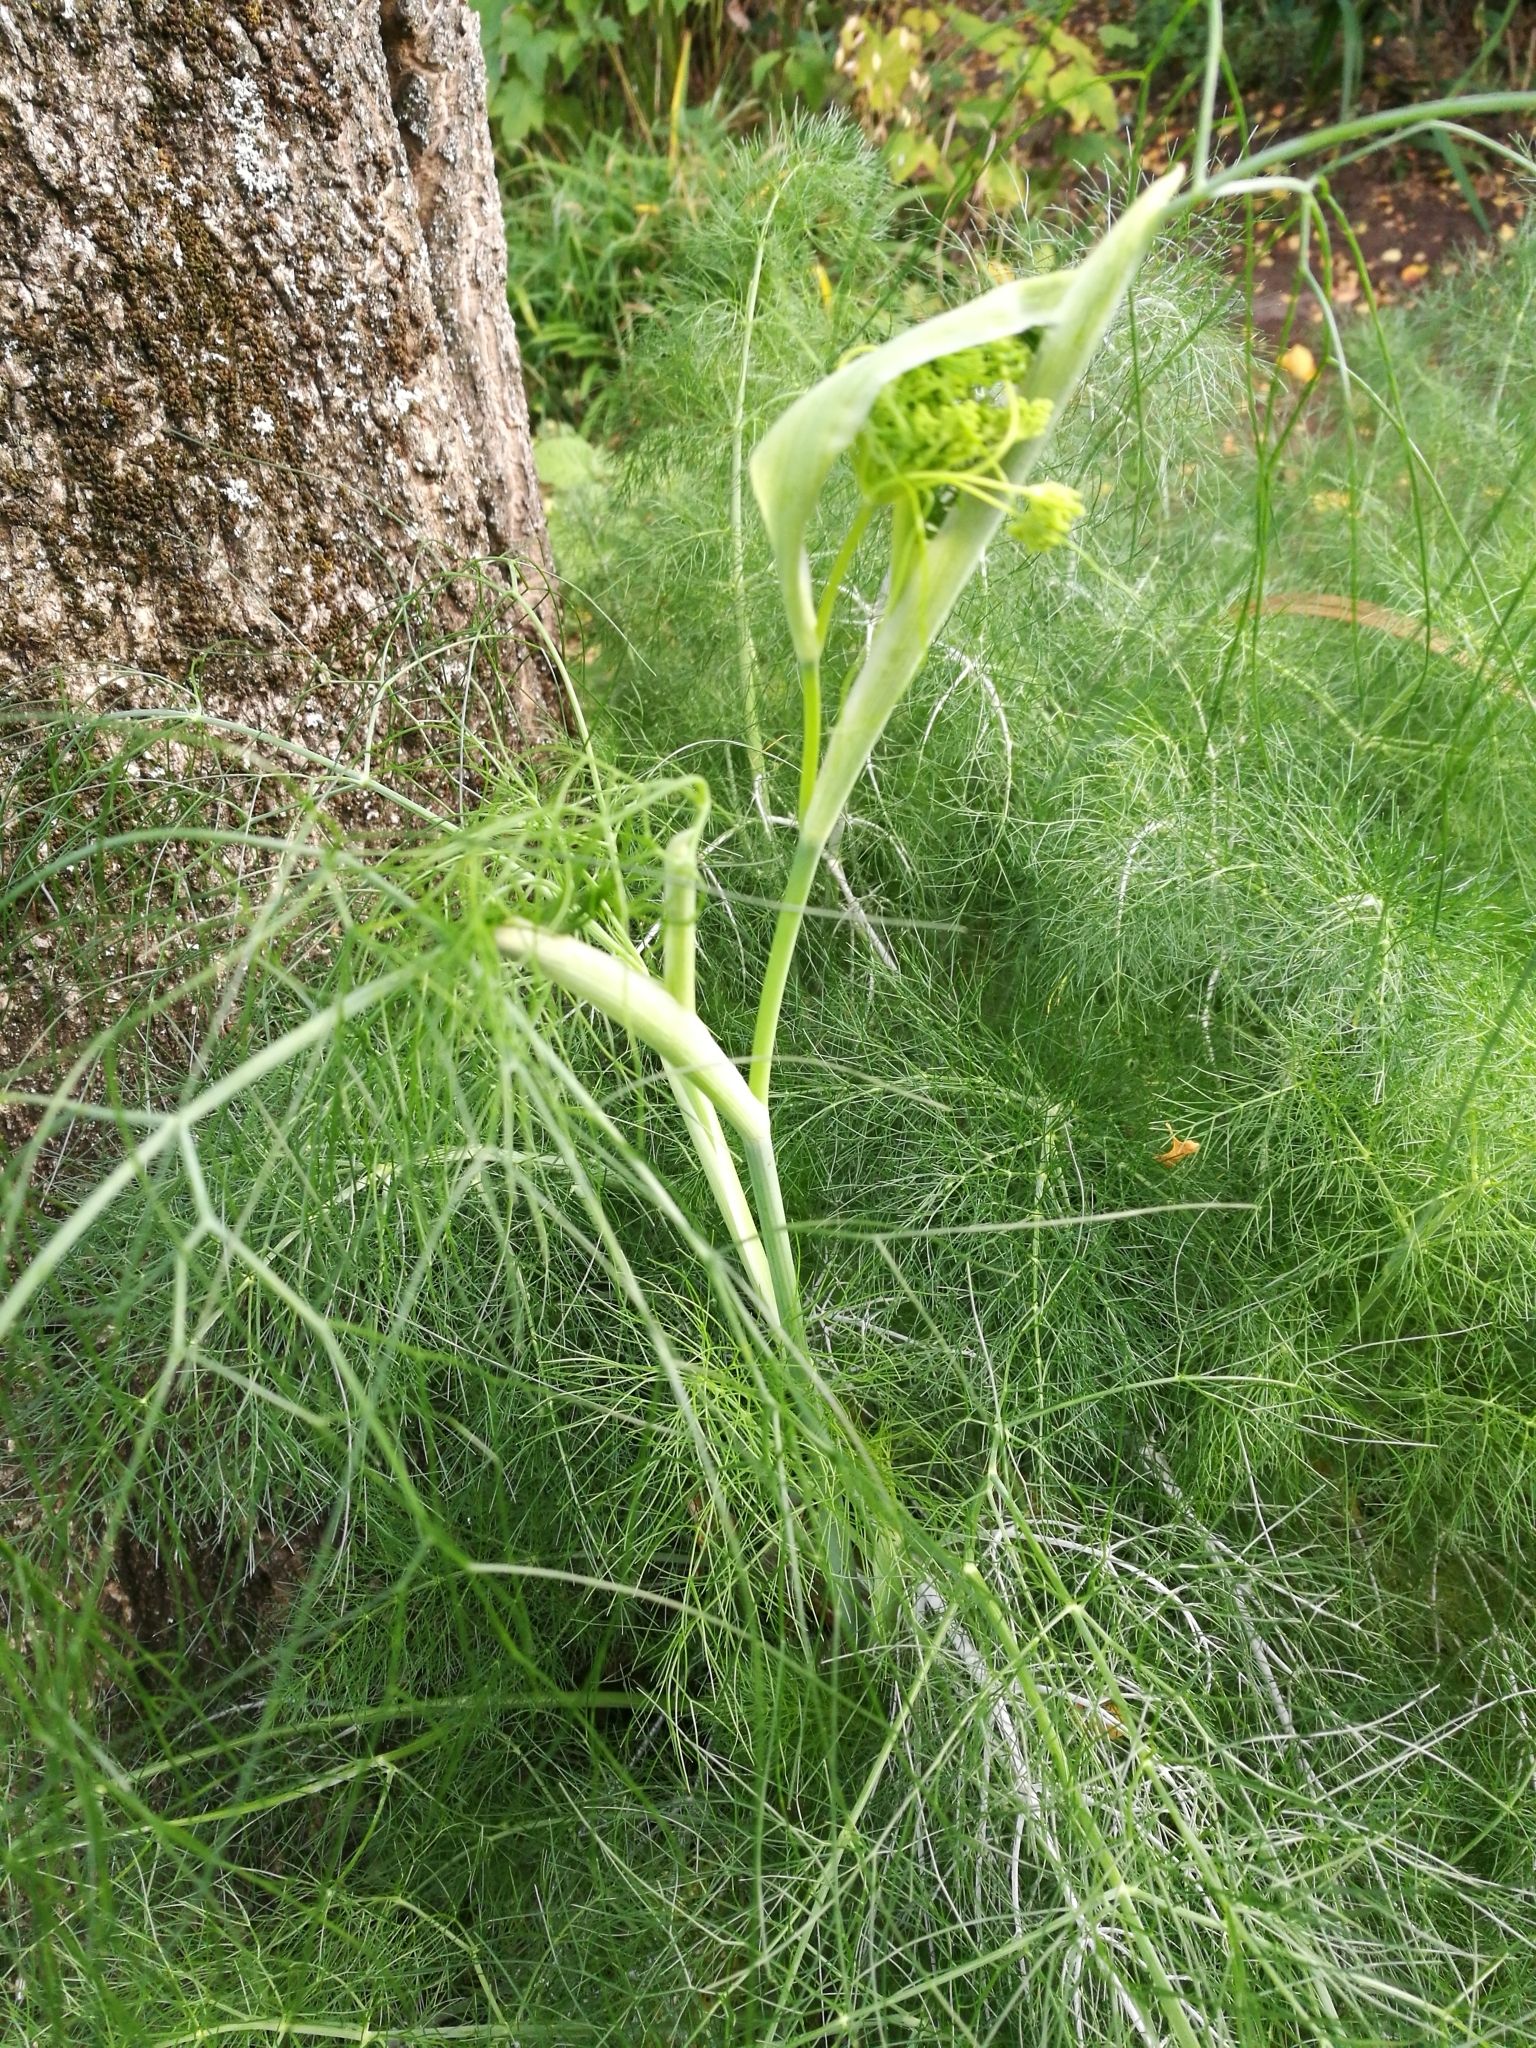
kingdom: Plantae
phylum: Tracheophyta
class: Magnoliopsida
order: Apiales
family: Apiaceae
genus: Foeniculum
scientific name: Foeniculum vulgare
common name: Fennel
